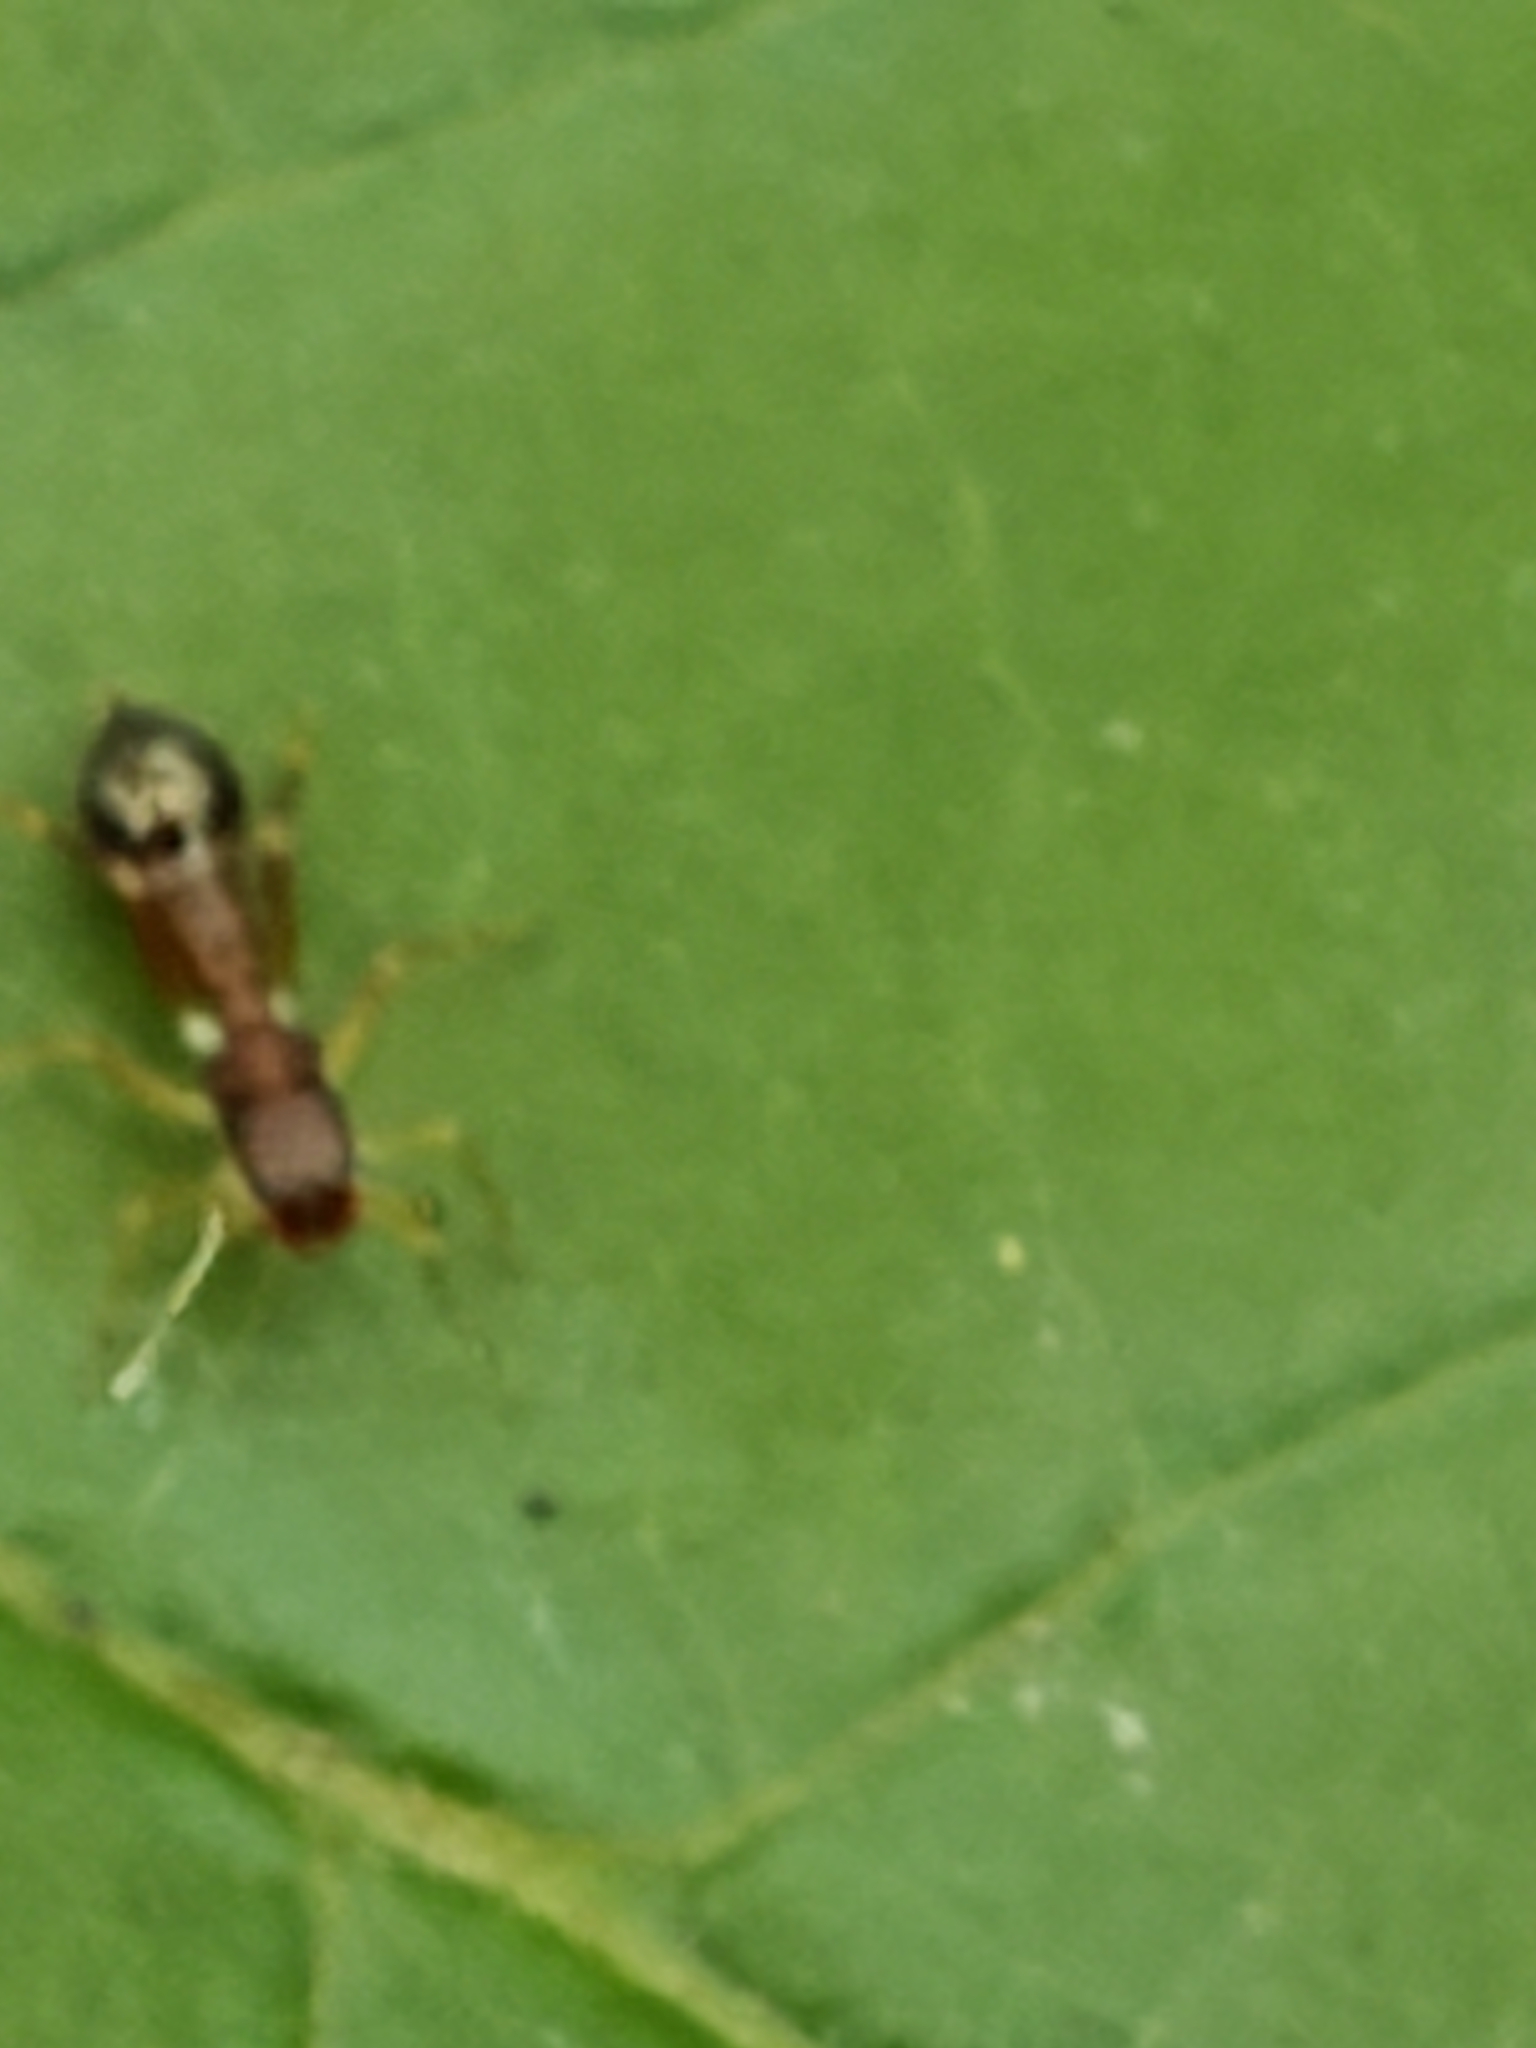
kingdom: Animalia
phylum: Arthropoda
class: Arachnida
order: Araneae
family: Salticidae
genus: Synemosyna
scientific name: Synemosyna formica
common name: Slender ant-mimic jumping spider
